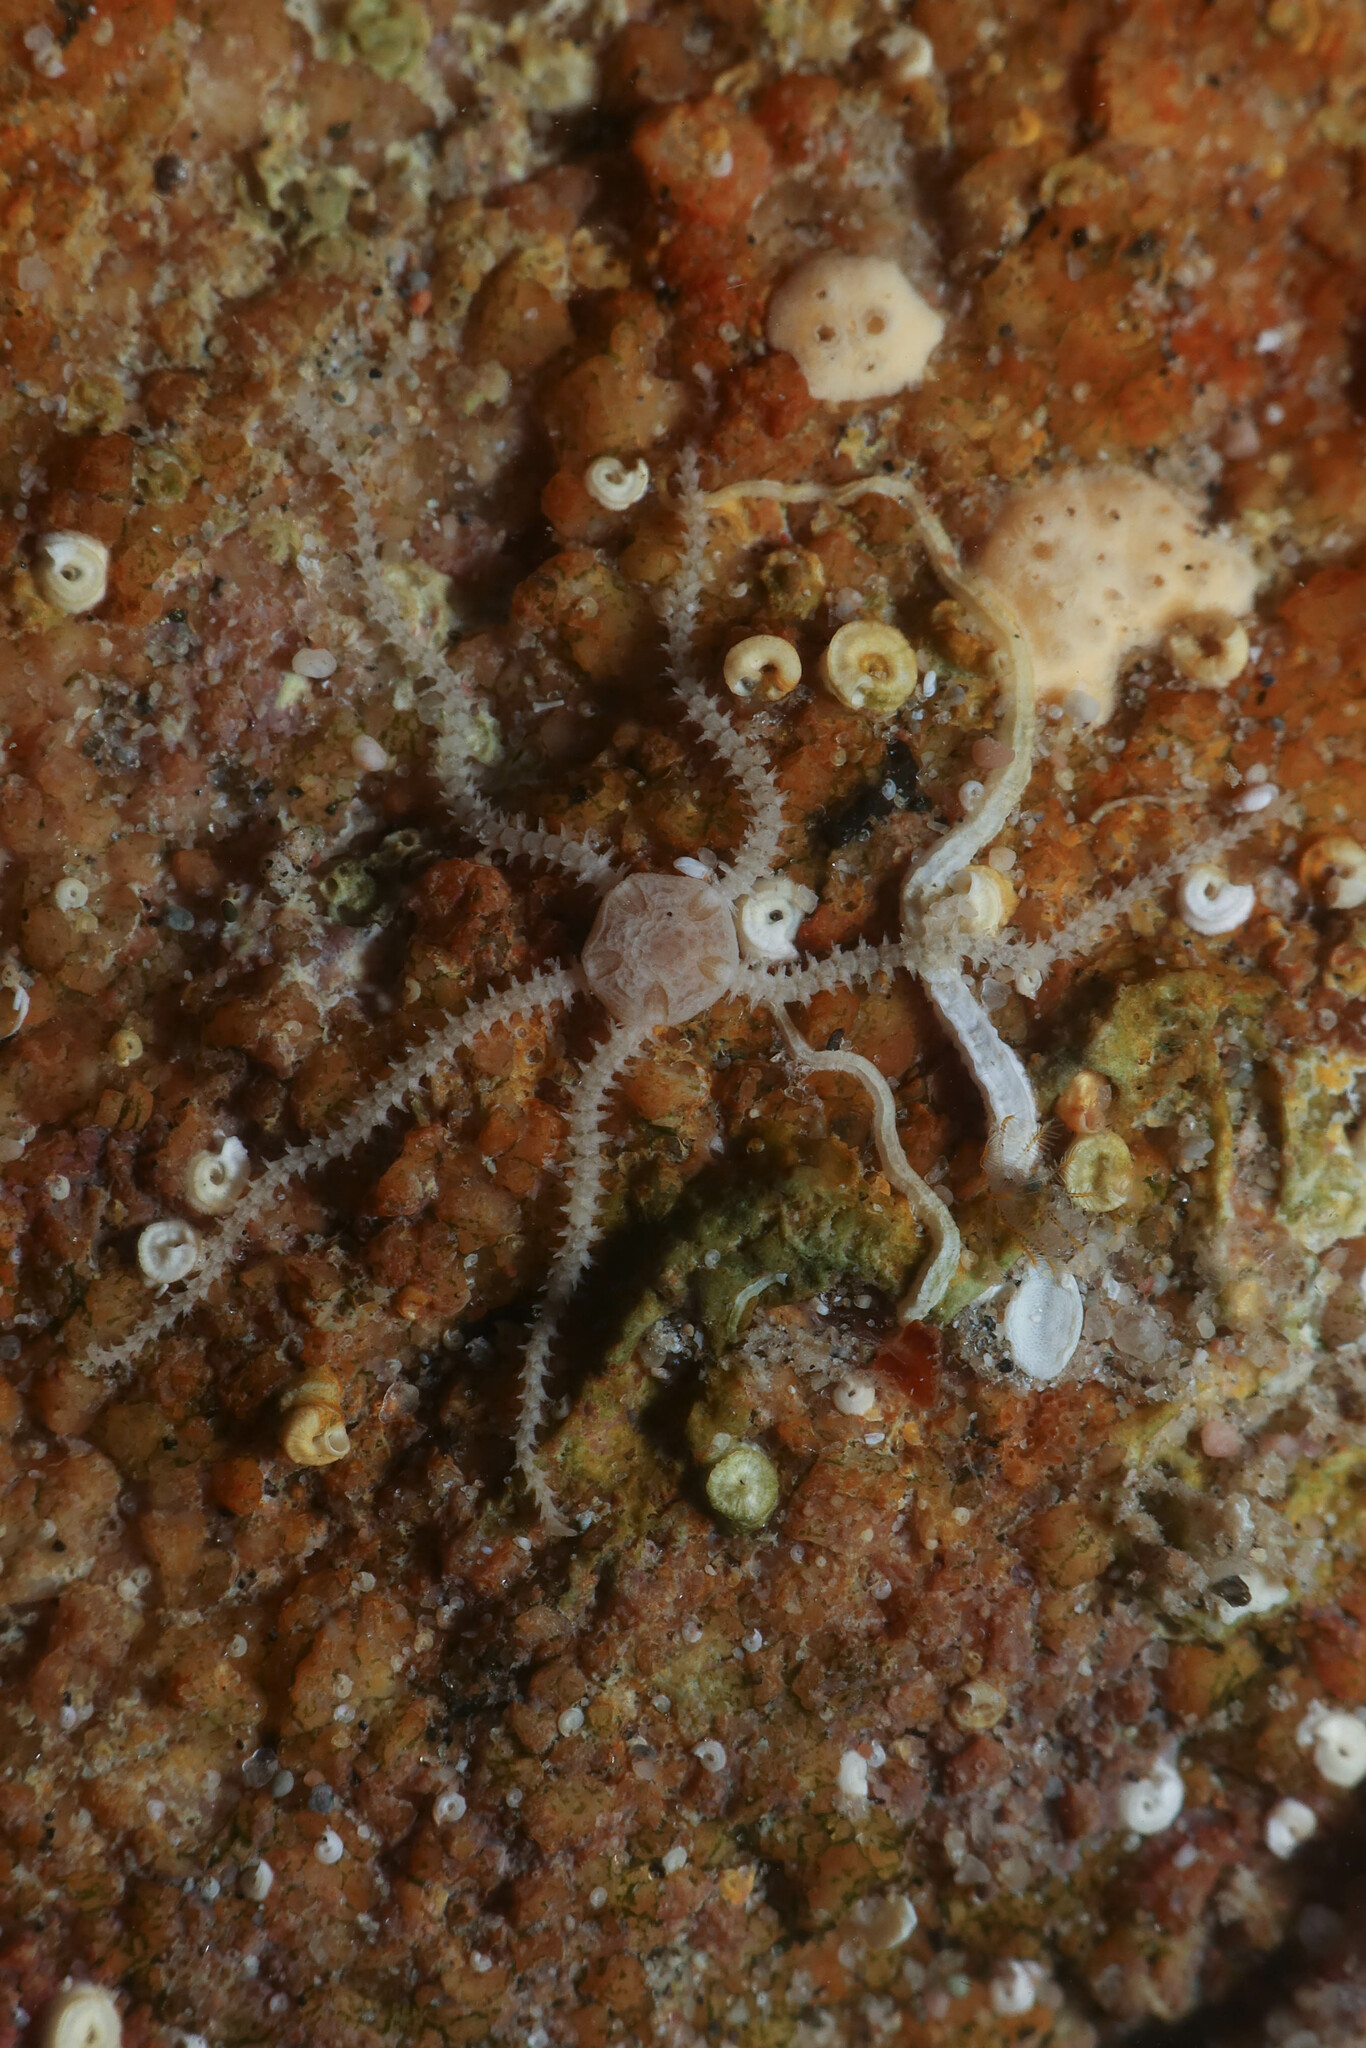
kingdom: Animalia
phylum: Echinodermata
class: Ophiuroidea
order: Amphilepidida
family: Amphiuridae
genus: Amphipholis
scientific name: Amphipholis squamata
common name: Brooding snake star
